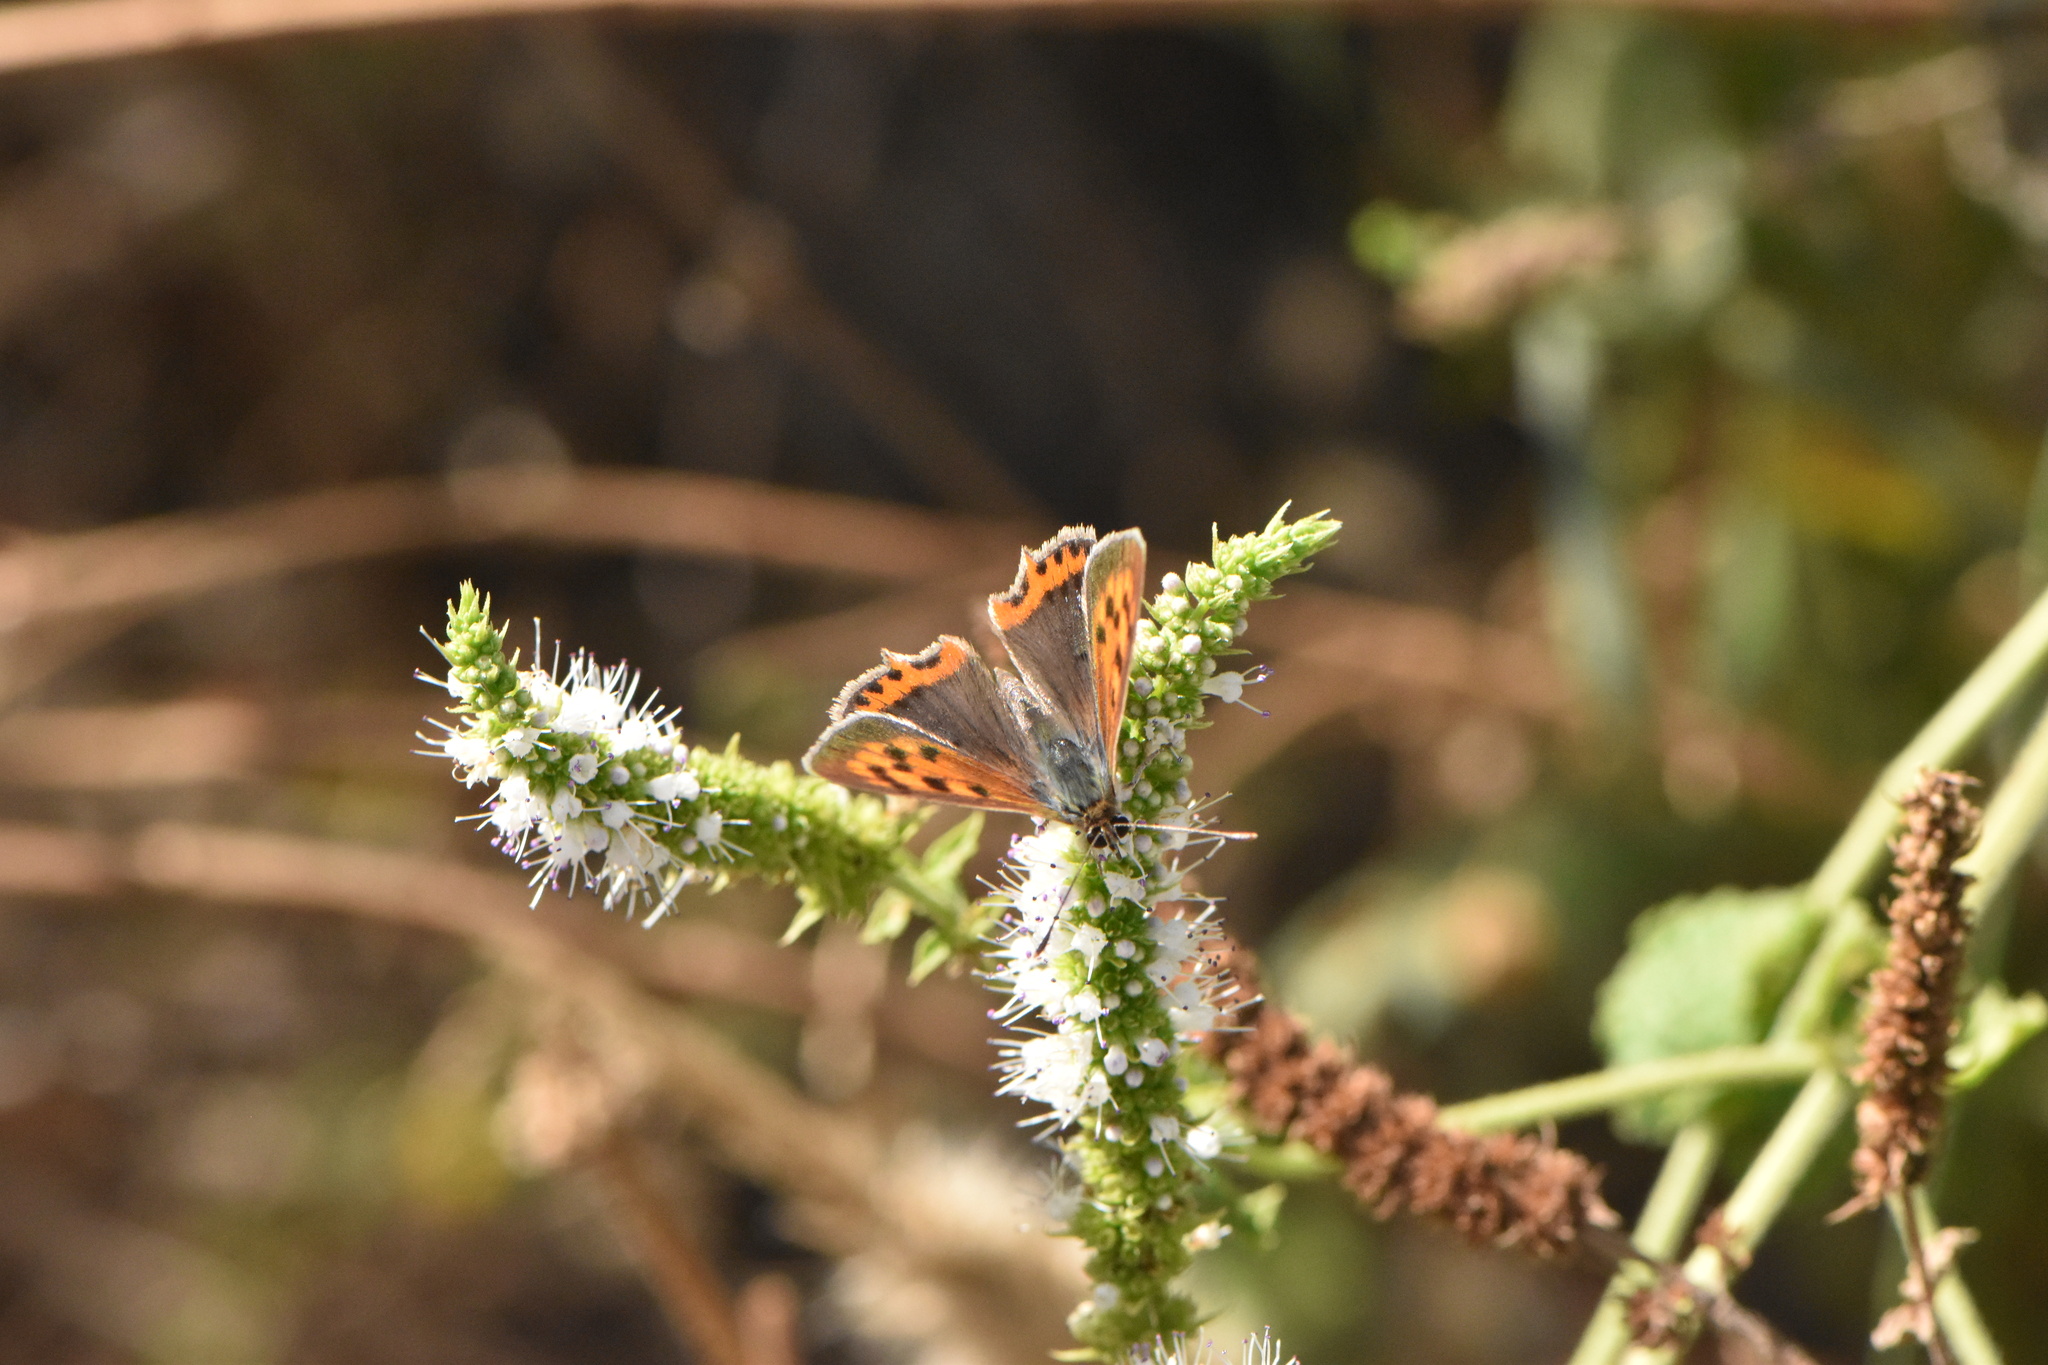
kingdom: Animalia
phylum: Arthropoda
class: Insecta
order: Lepidoptera
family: Lycaenidae
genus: Lycaena
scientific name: Lycaena phlaeas
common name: Small copper
